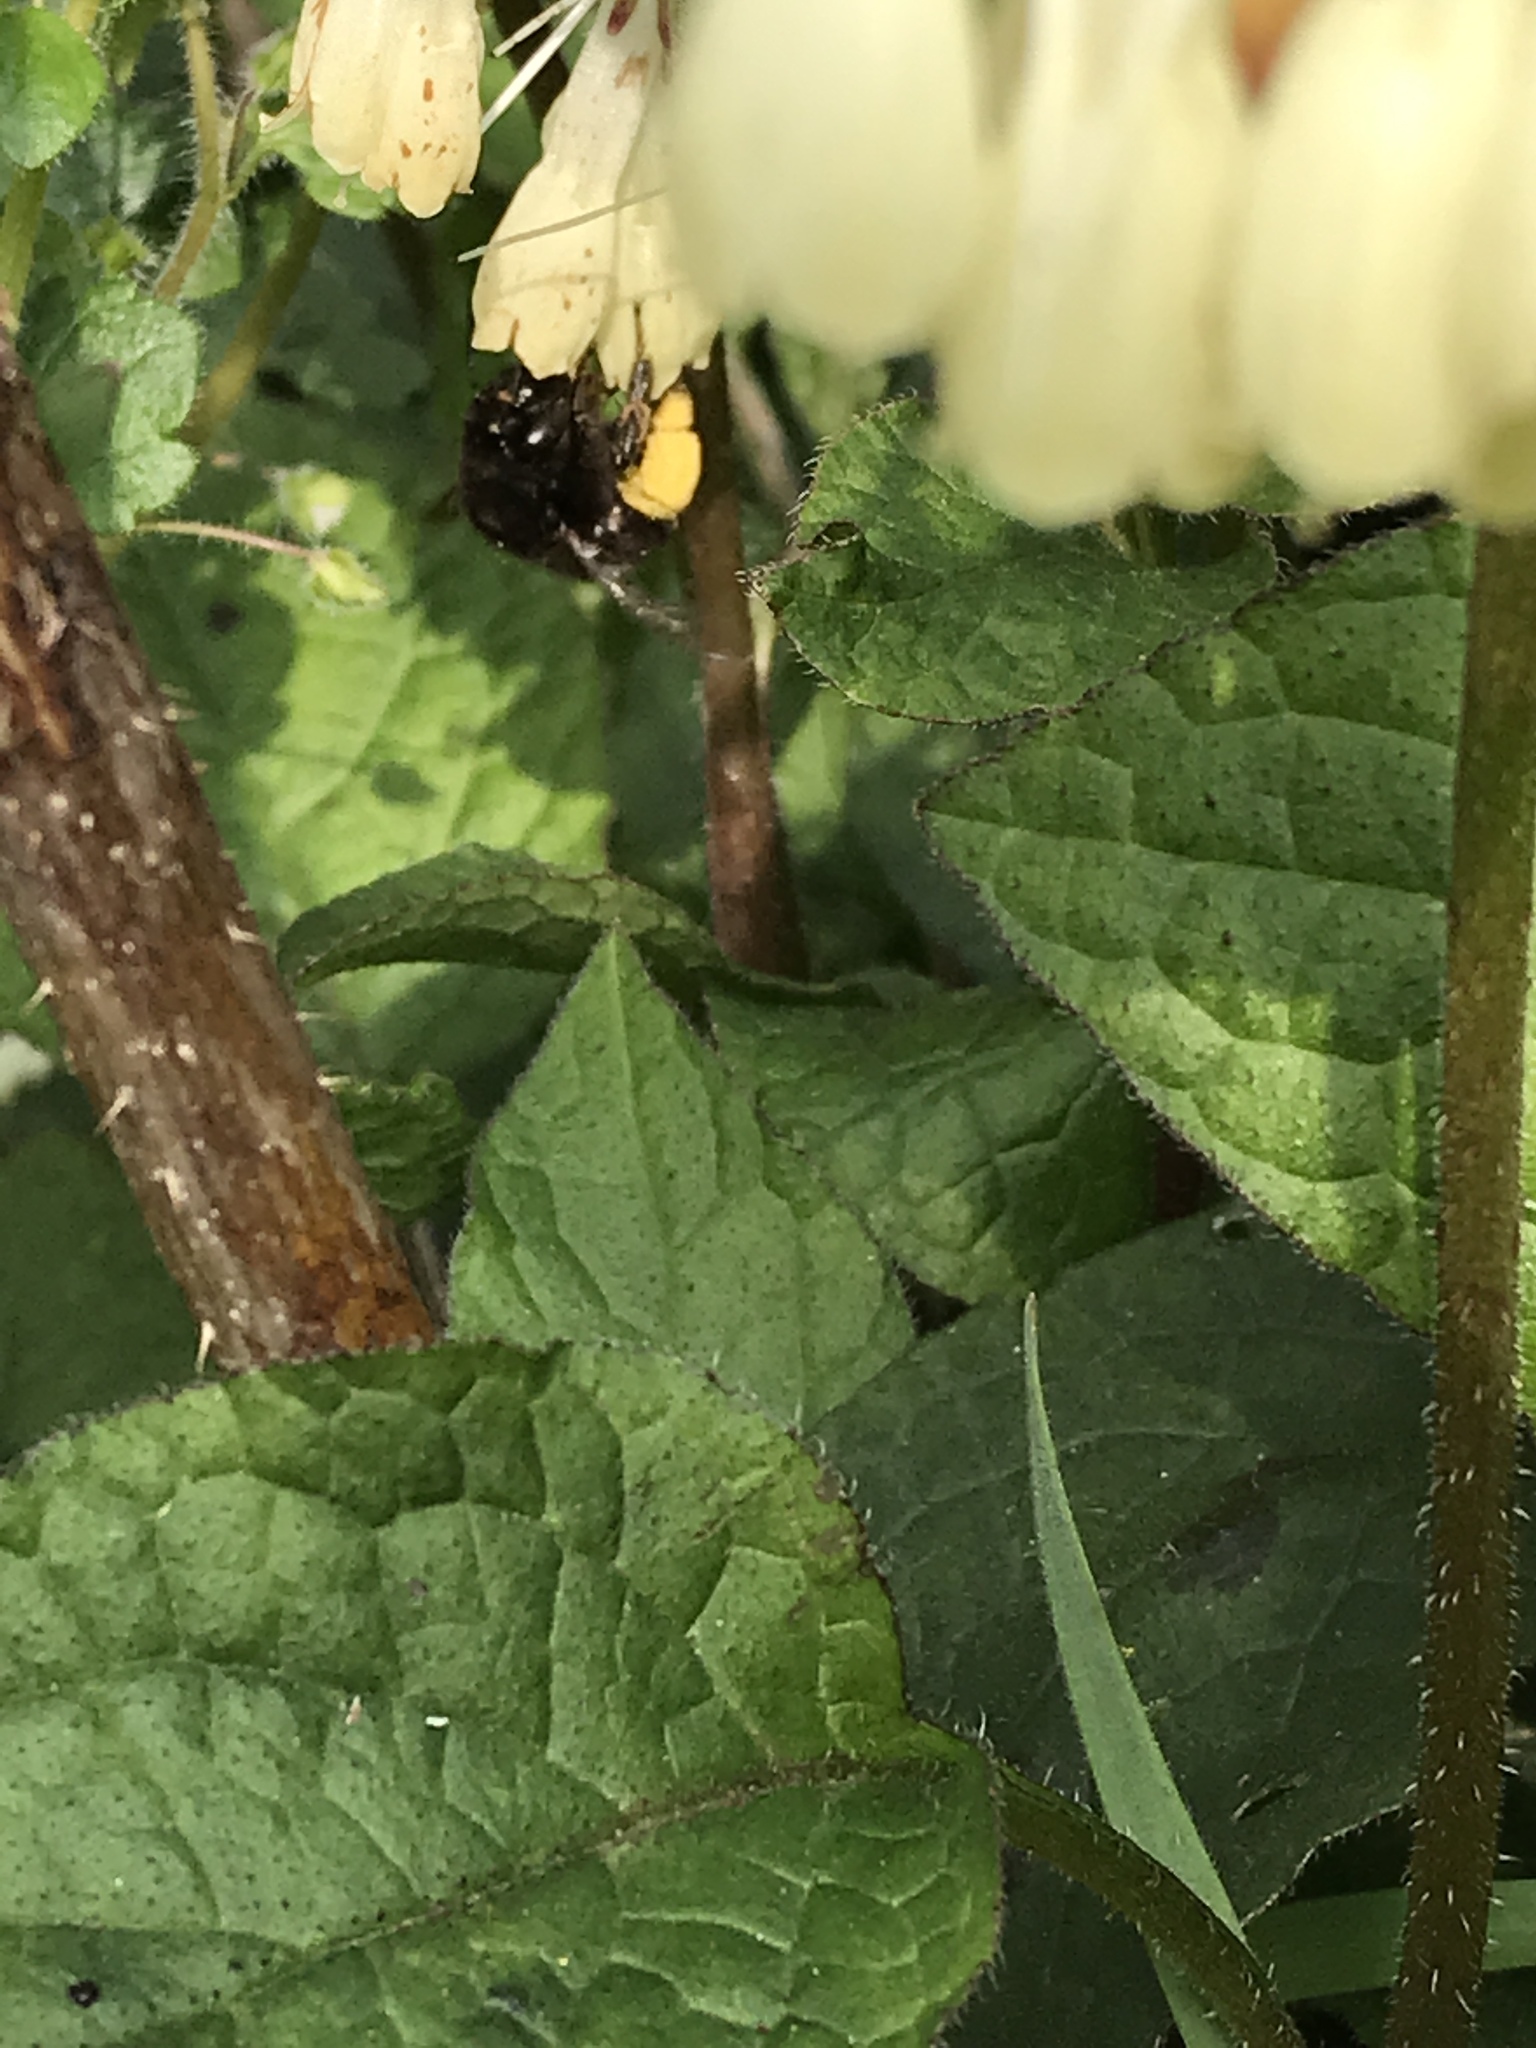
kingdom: Animalia
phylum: Arthropoda
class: Insecta
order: Hymenoptera
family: Apidae
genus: Anthophora
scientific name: Anthophora plumipes
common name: Hairy-footed flower bee
